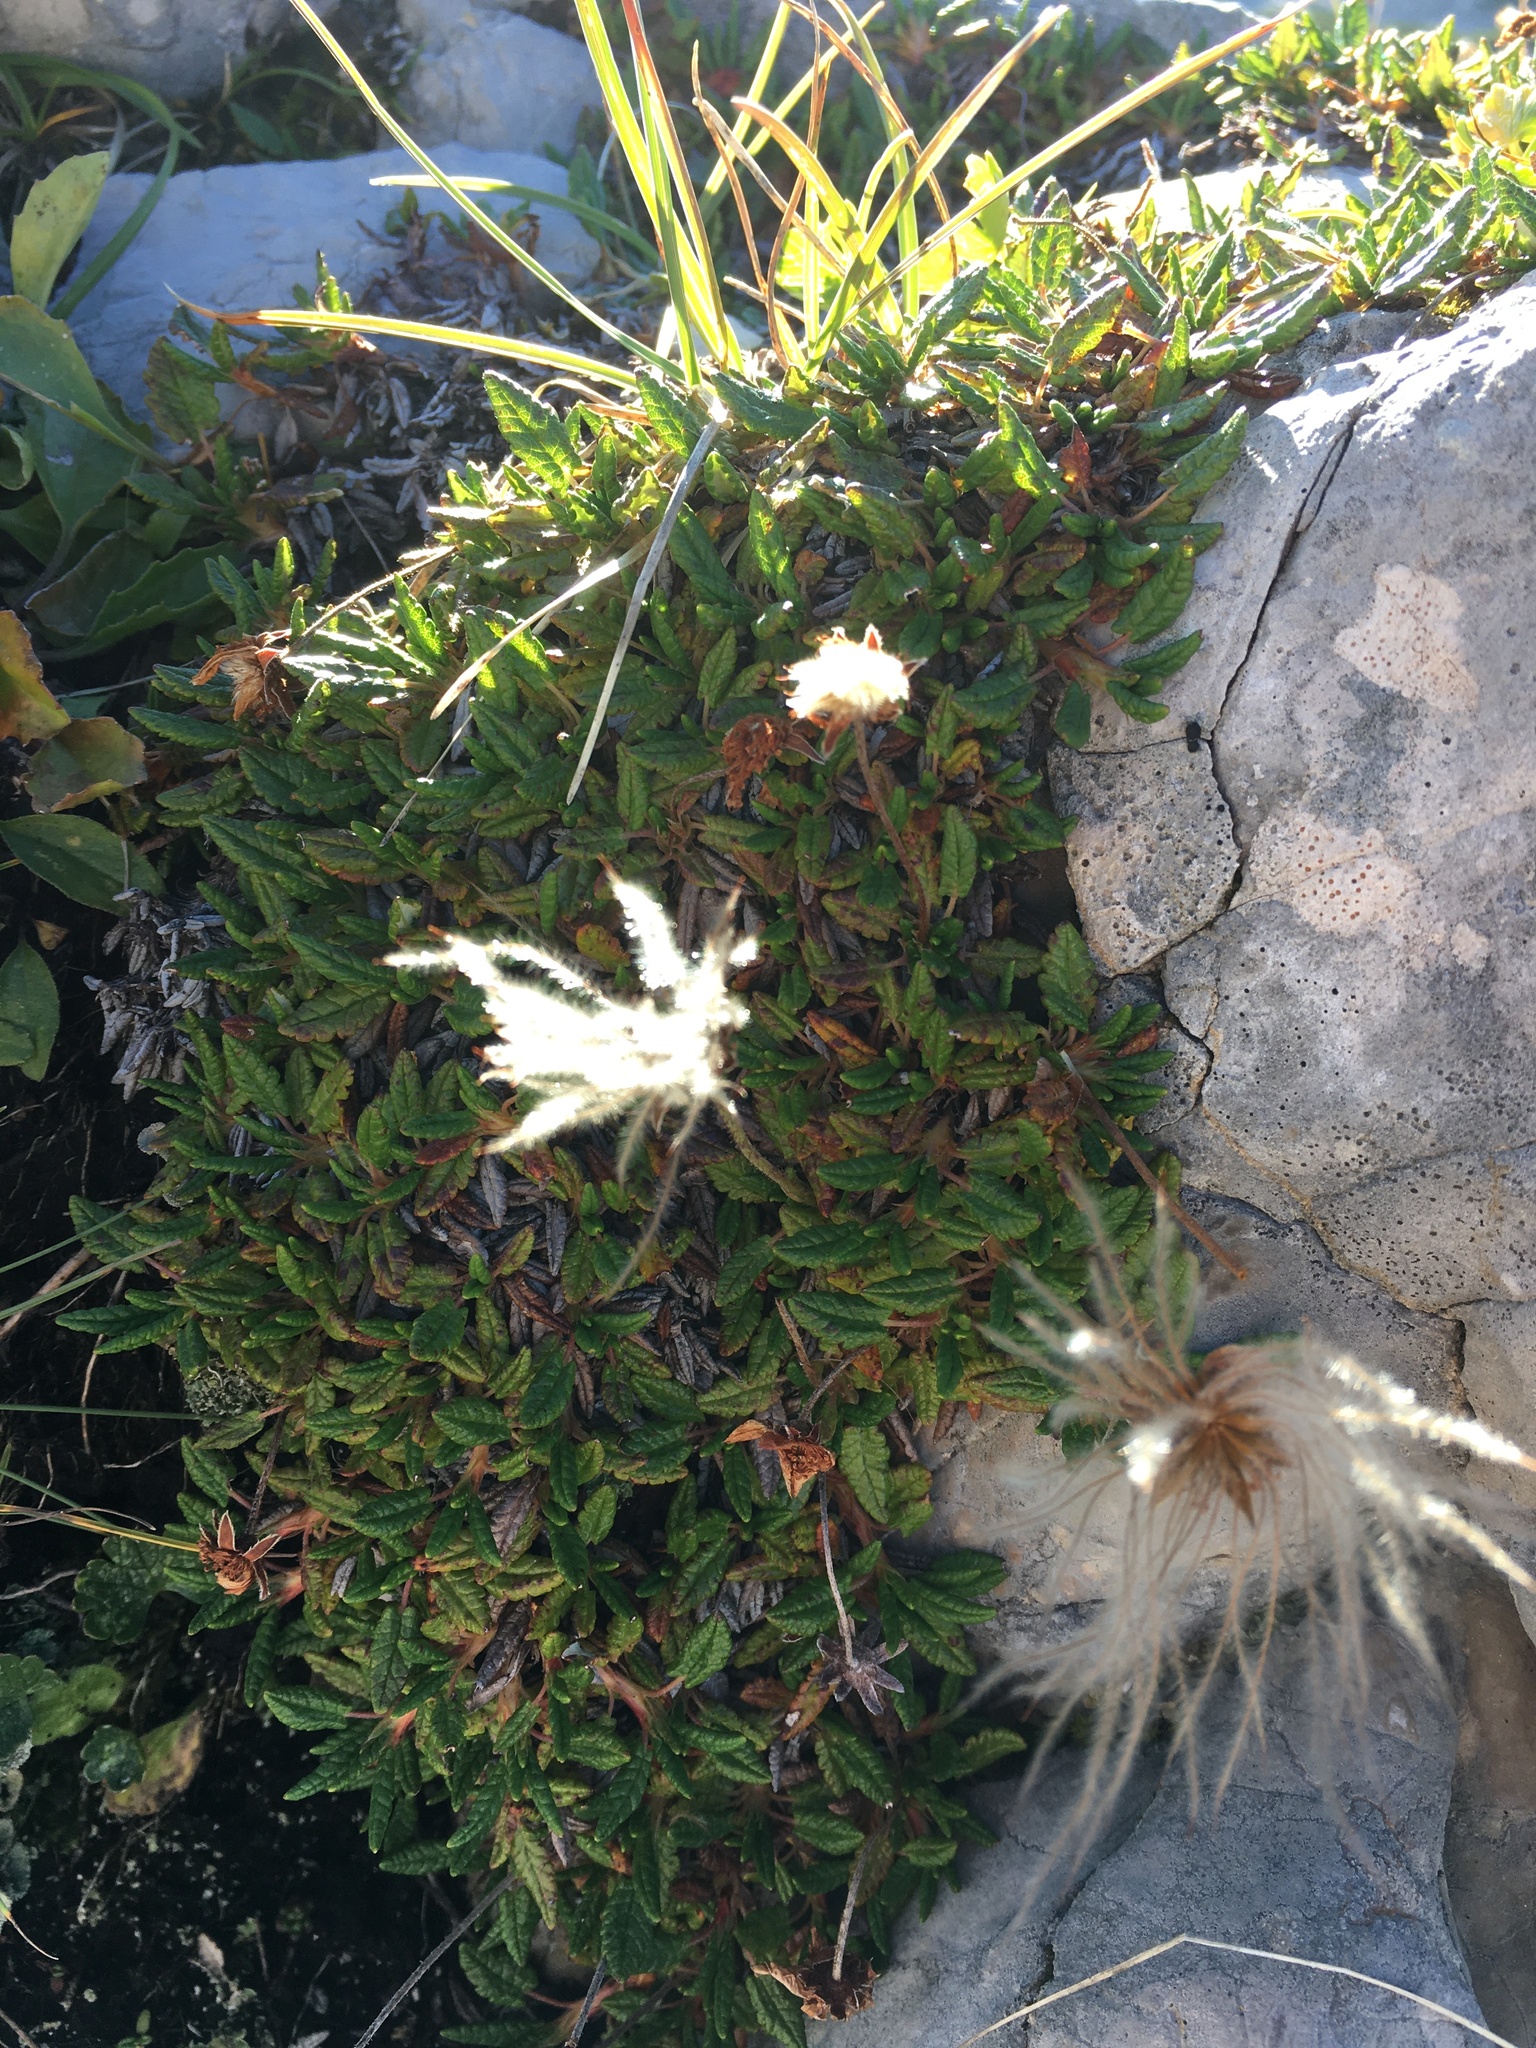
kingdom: Plantae
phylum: Tracheophyta
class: Magnoliopsida
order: Rosales
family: Rosaceae
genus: Dryas
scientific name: Dryas octopetala
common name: Eight-petal mountain-avens
